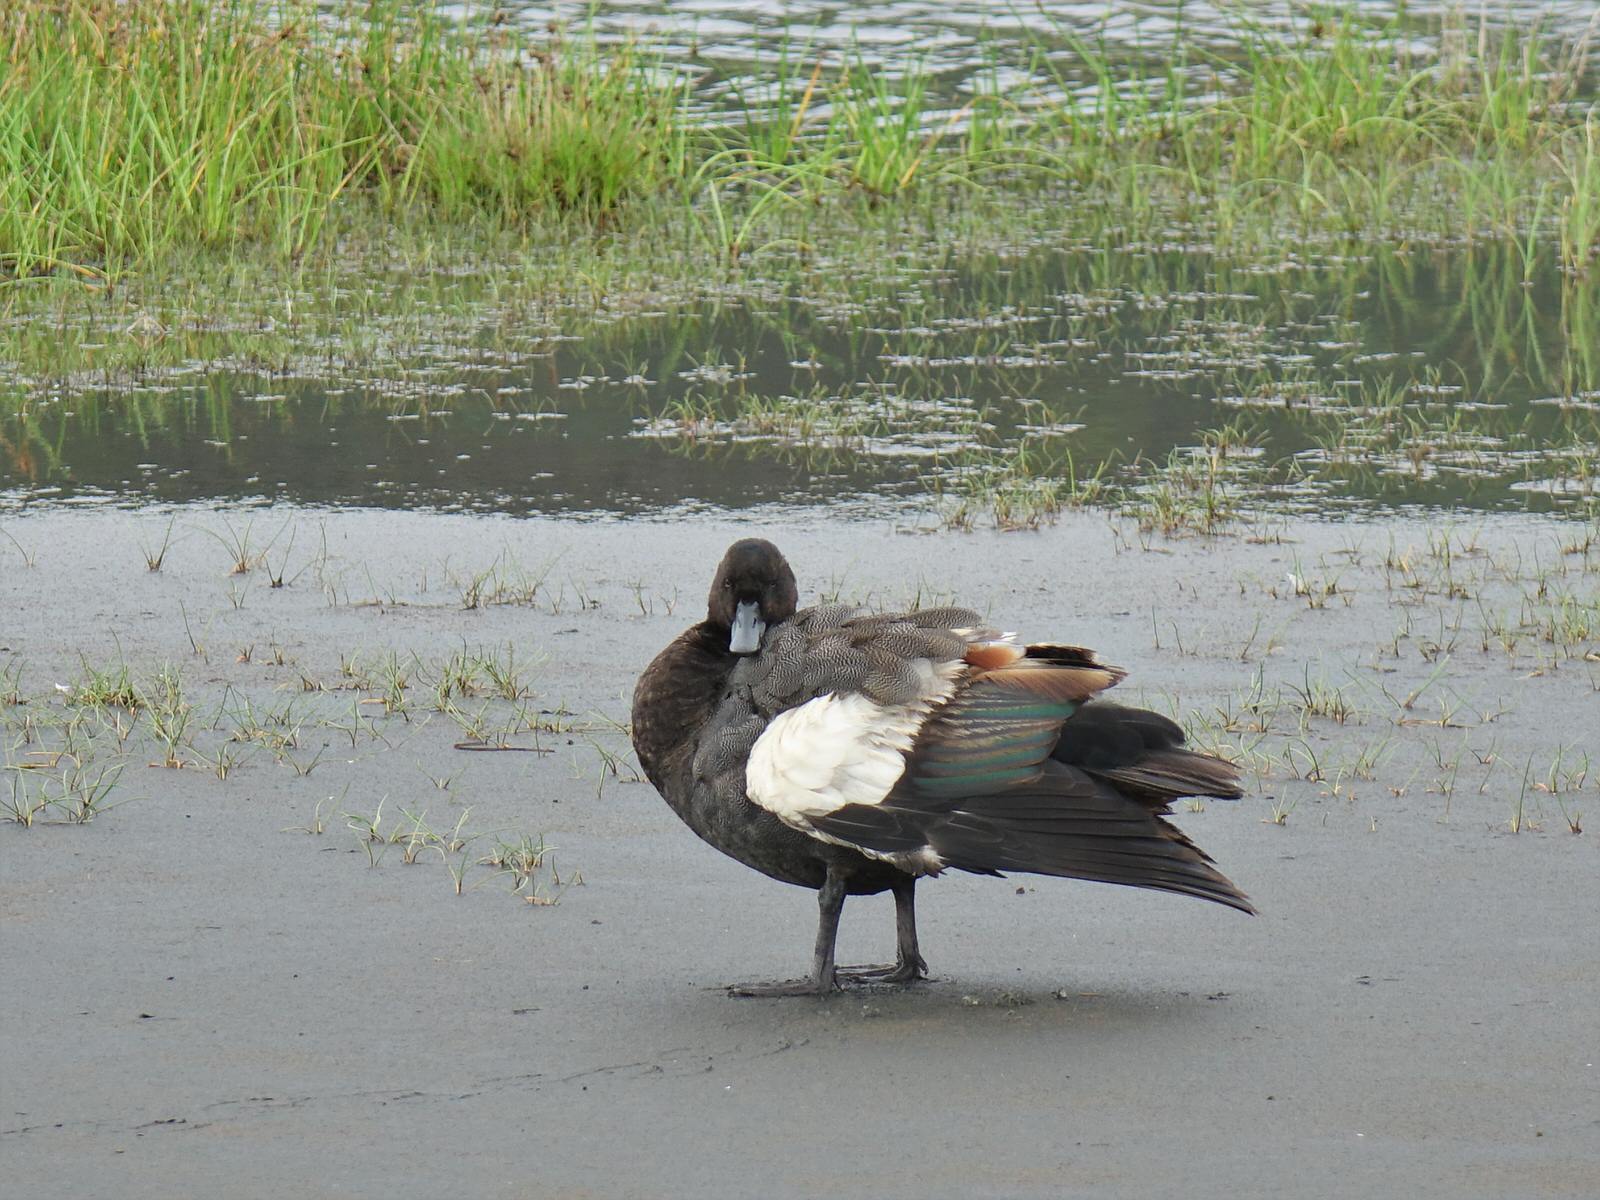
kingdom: Animalia
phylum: Chordata
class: Aves
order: Anseriformes
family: Anatidae
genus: Tadorna
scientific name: Tadorna variegata
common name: Paradise shelduck
